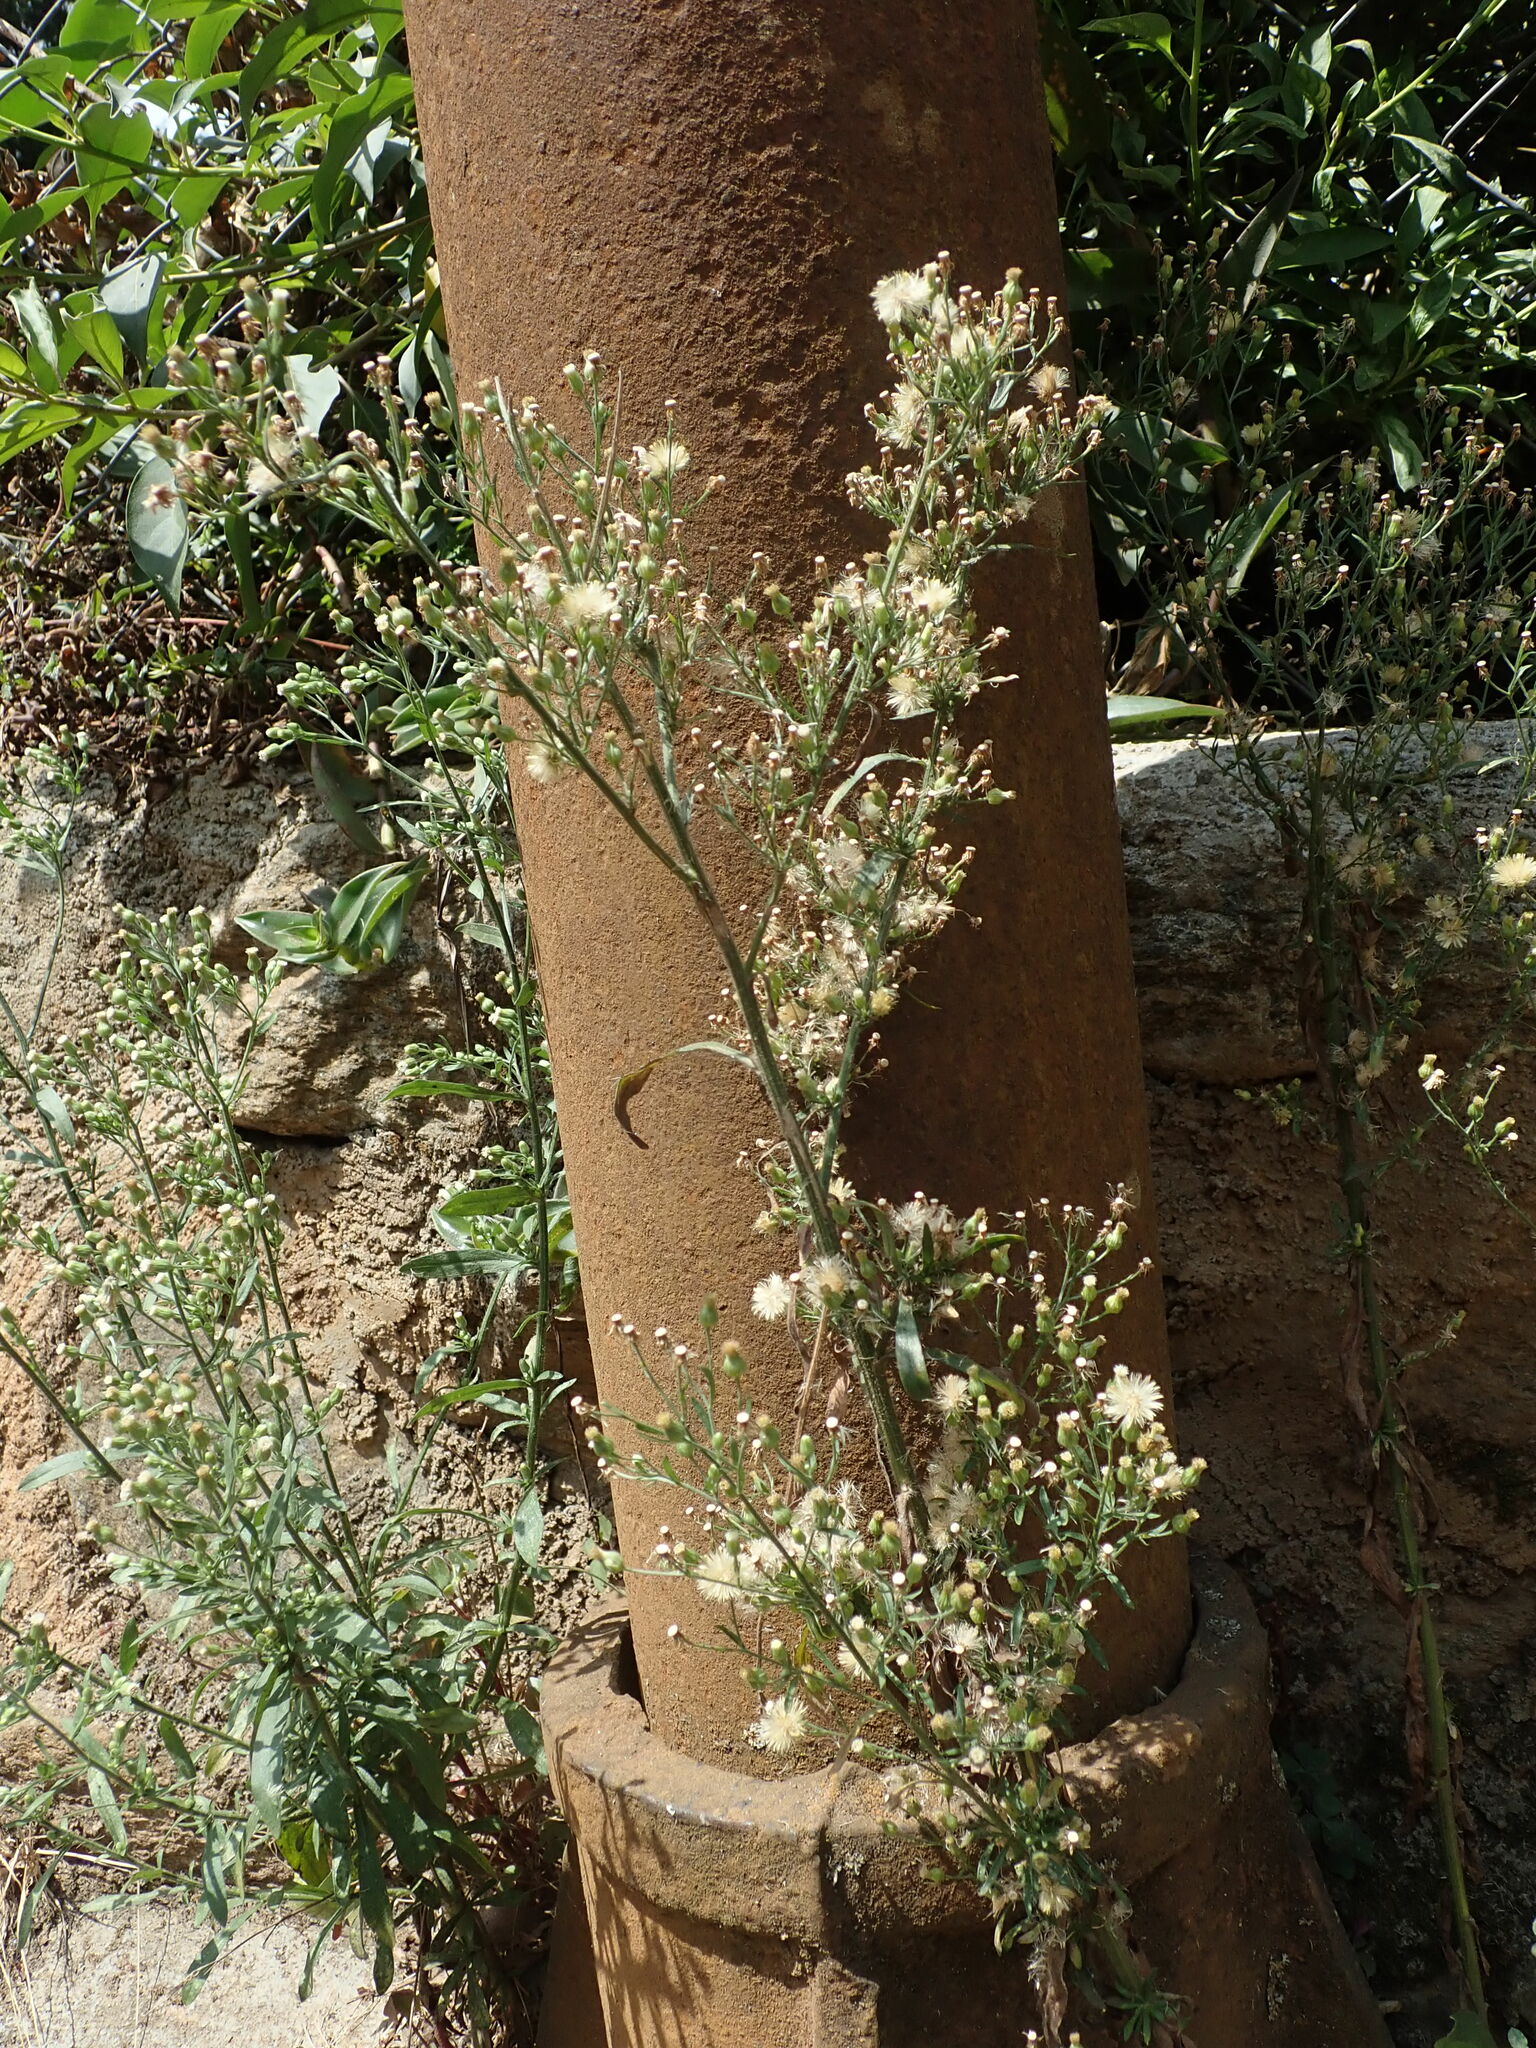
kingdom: Plantae
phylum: Tracheophyta
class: Magnoliopsida
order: Asterales
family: Asteraceae
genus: Erigeron
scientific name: Erigeron sumatrensis
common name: Daisy
